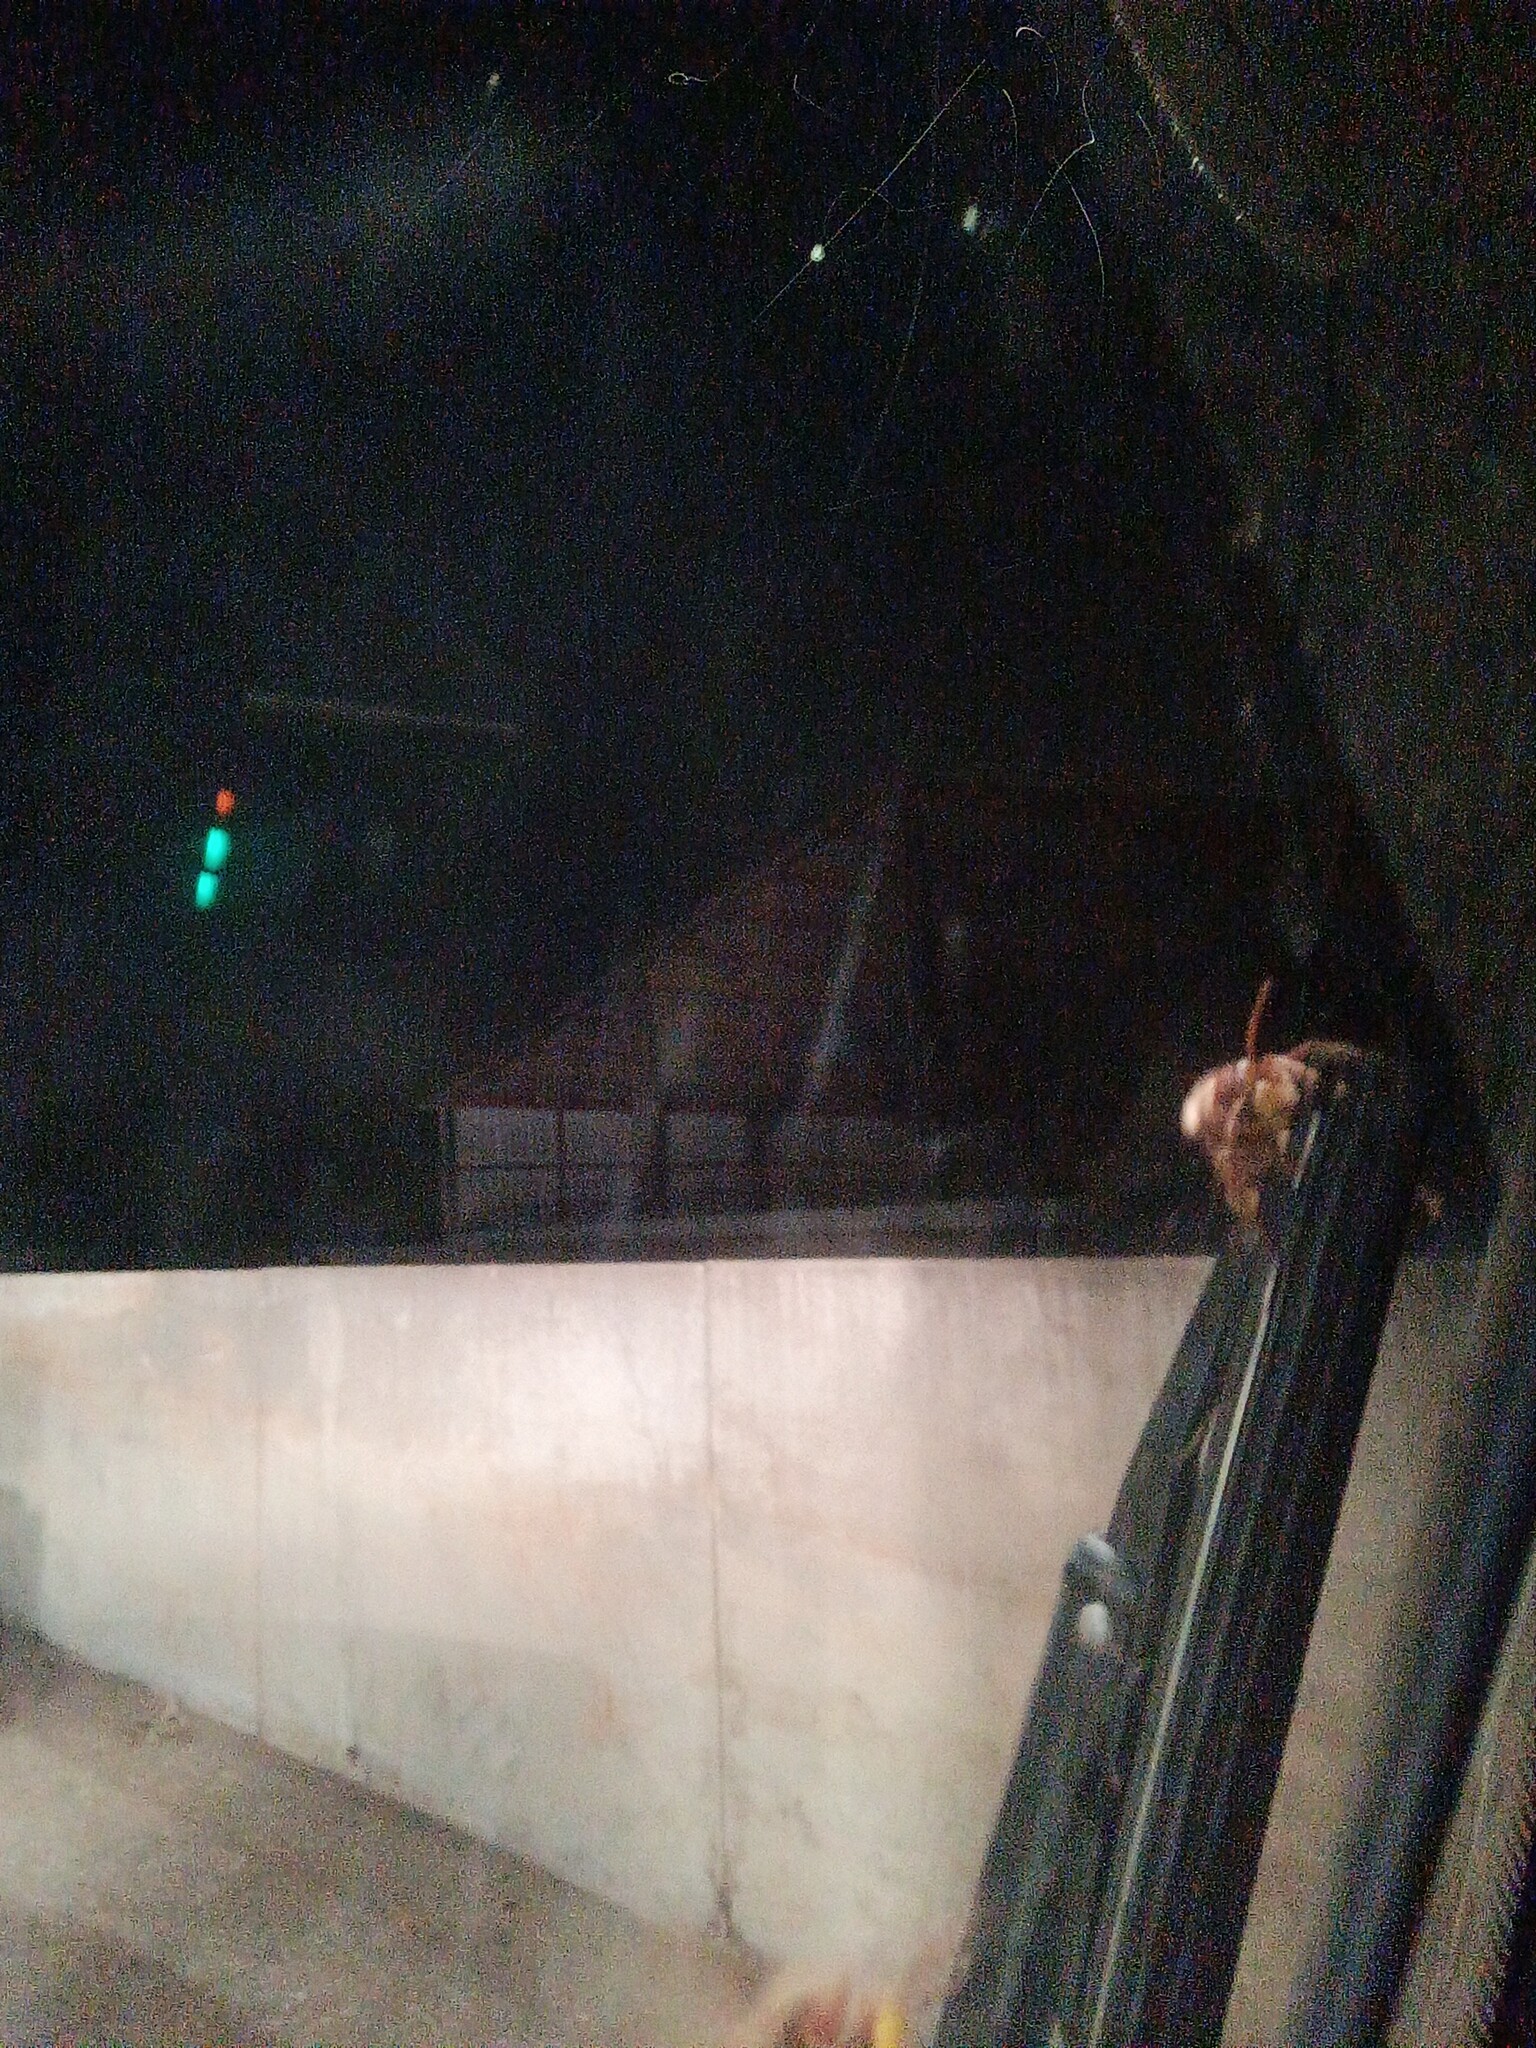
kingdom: Animalia
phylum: Arthropoda
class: Insecta
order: Hymenoptera
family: Vespidae
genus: Vespa
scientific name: Vespa crabro
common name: Hornet
